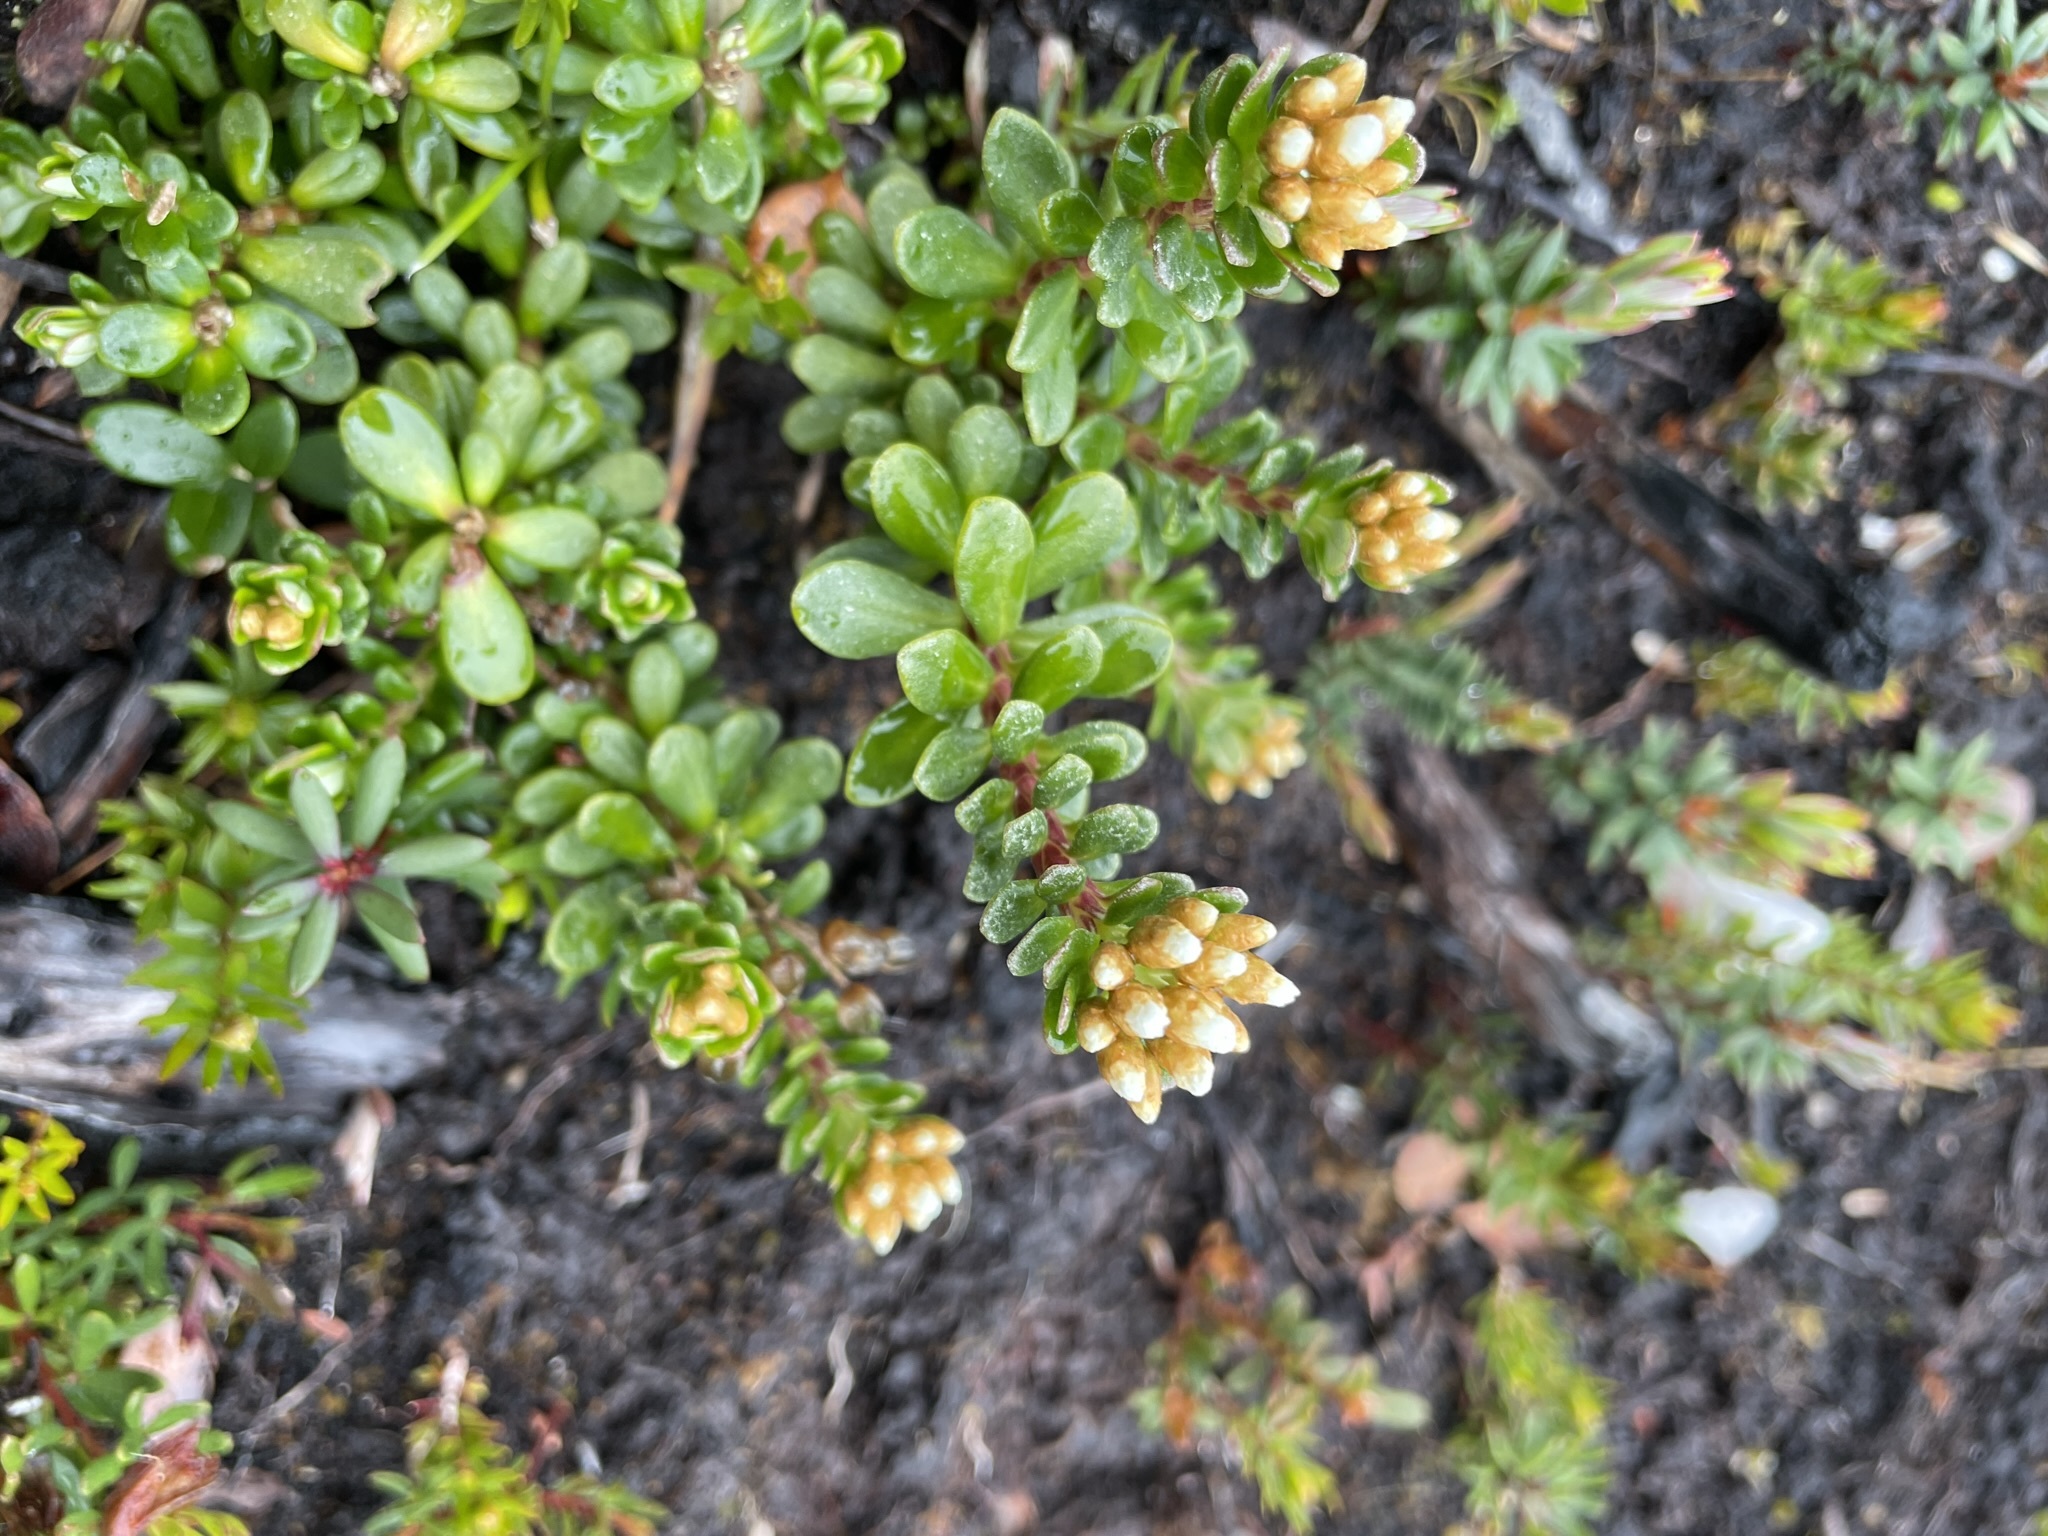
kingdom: Plantae
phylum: Tracheophyta
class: Magnoliopsida
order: Asterales
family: Asteraceae
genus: Ozothamnus
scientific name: Ozothamnus rodwayi
